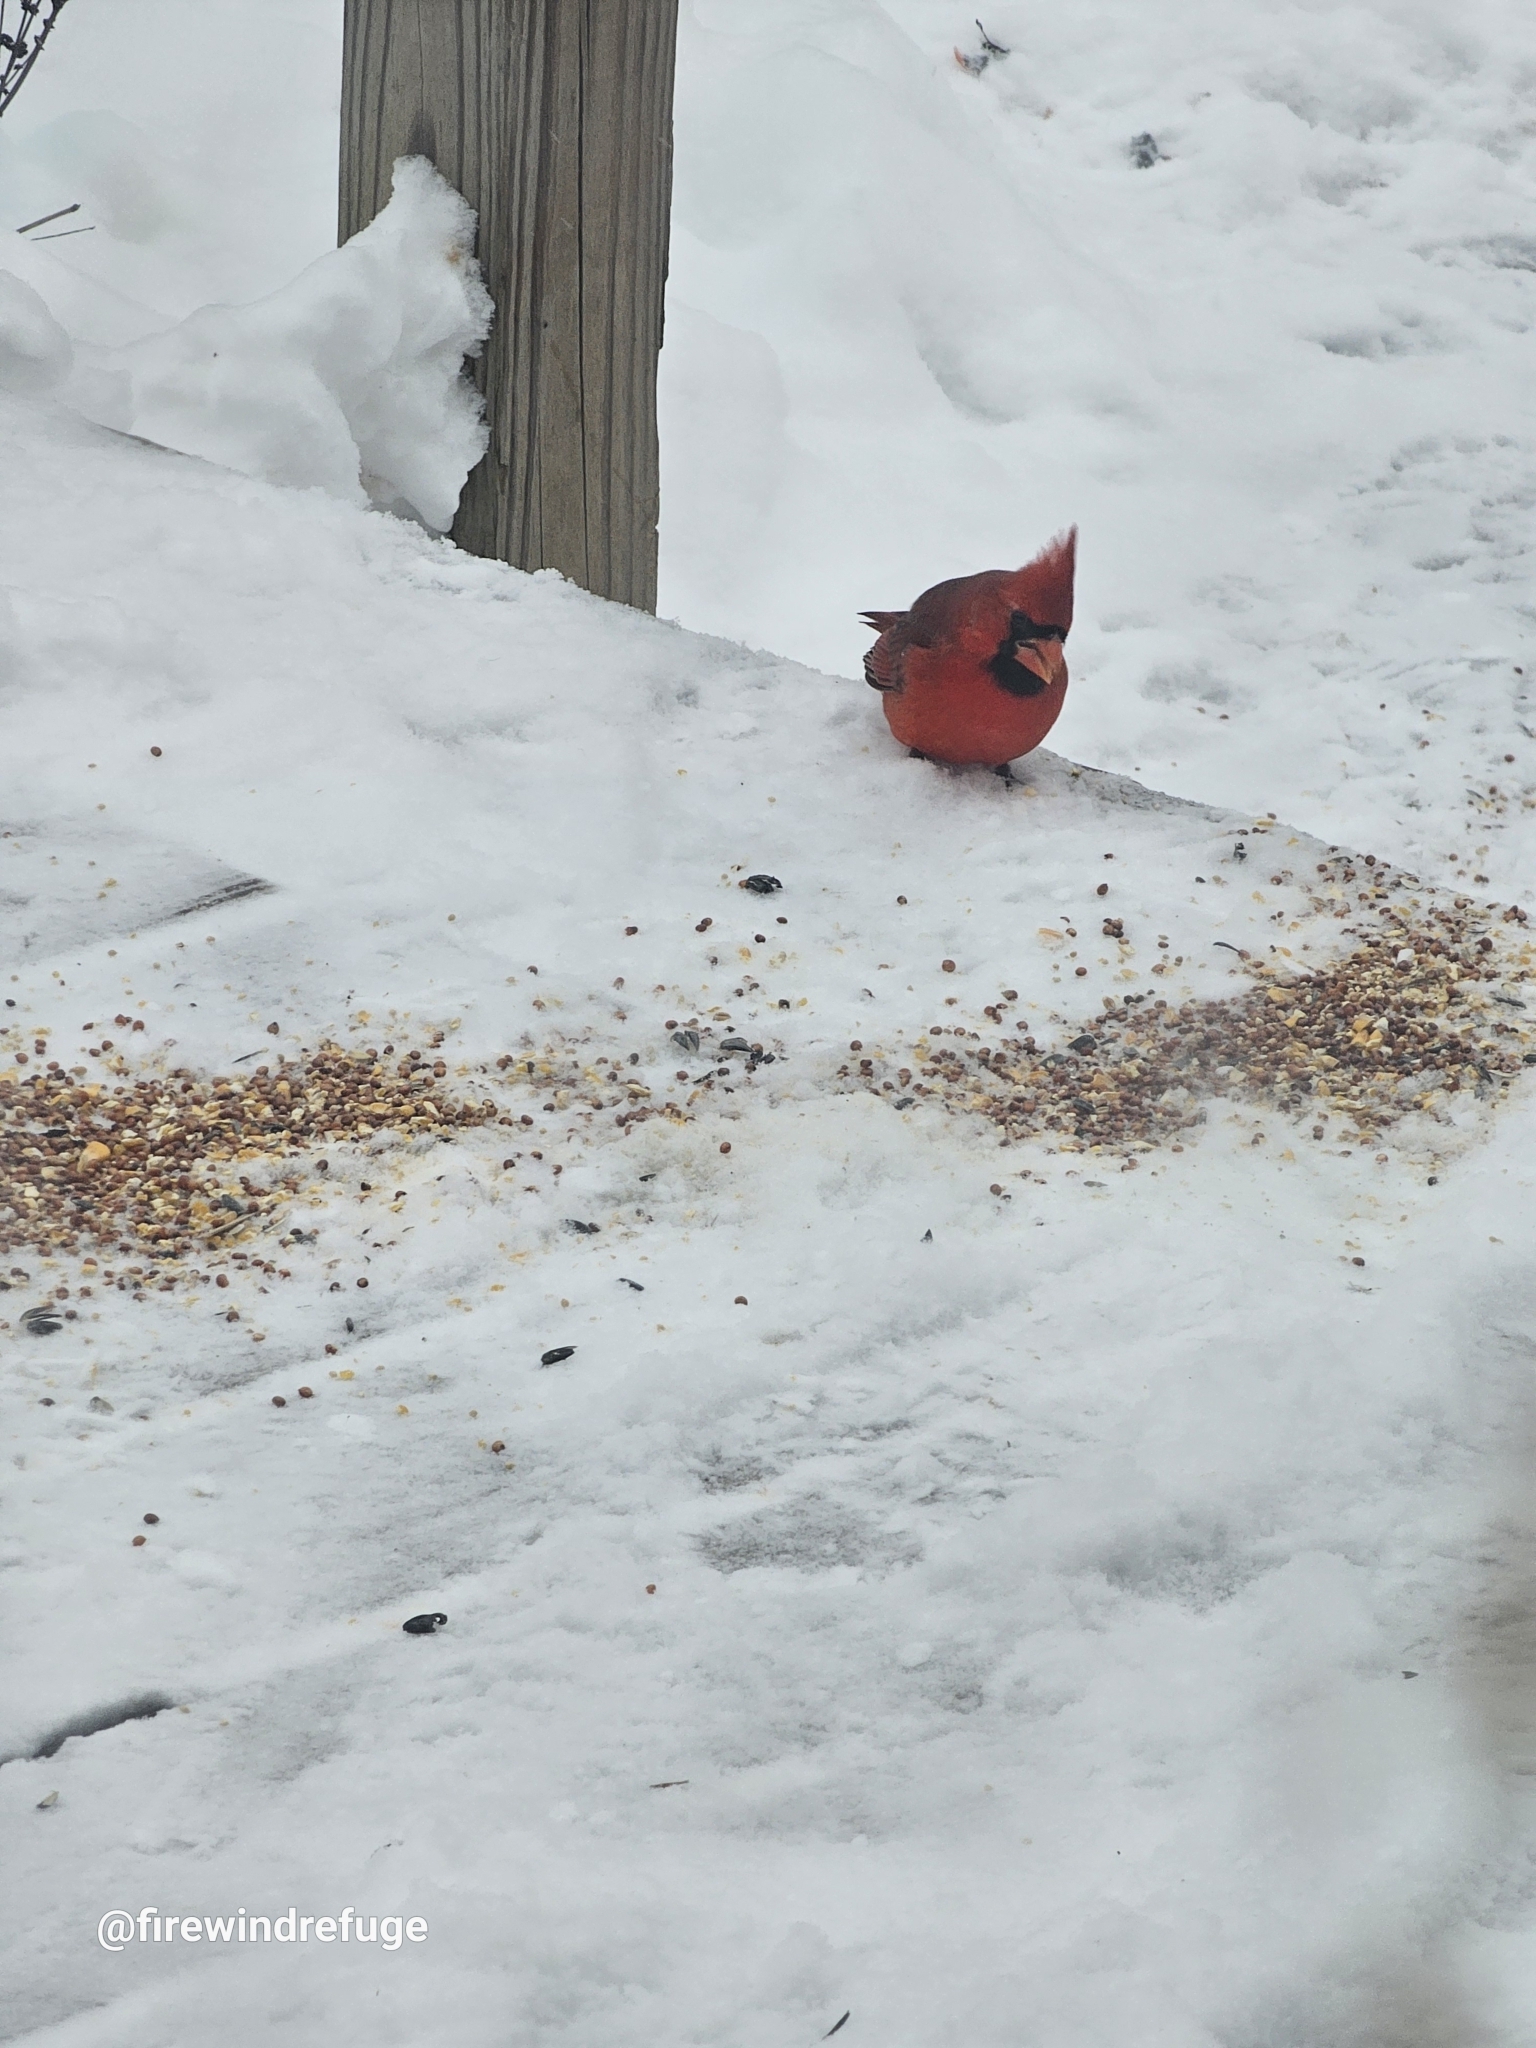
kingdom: Animalia
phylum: Chordata
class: Aves
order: Passeriformes
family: Cardinalidae
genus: Cardinalis
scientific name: Cardinalis cardinalis
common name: Northern cardinal
